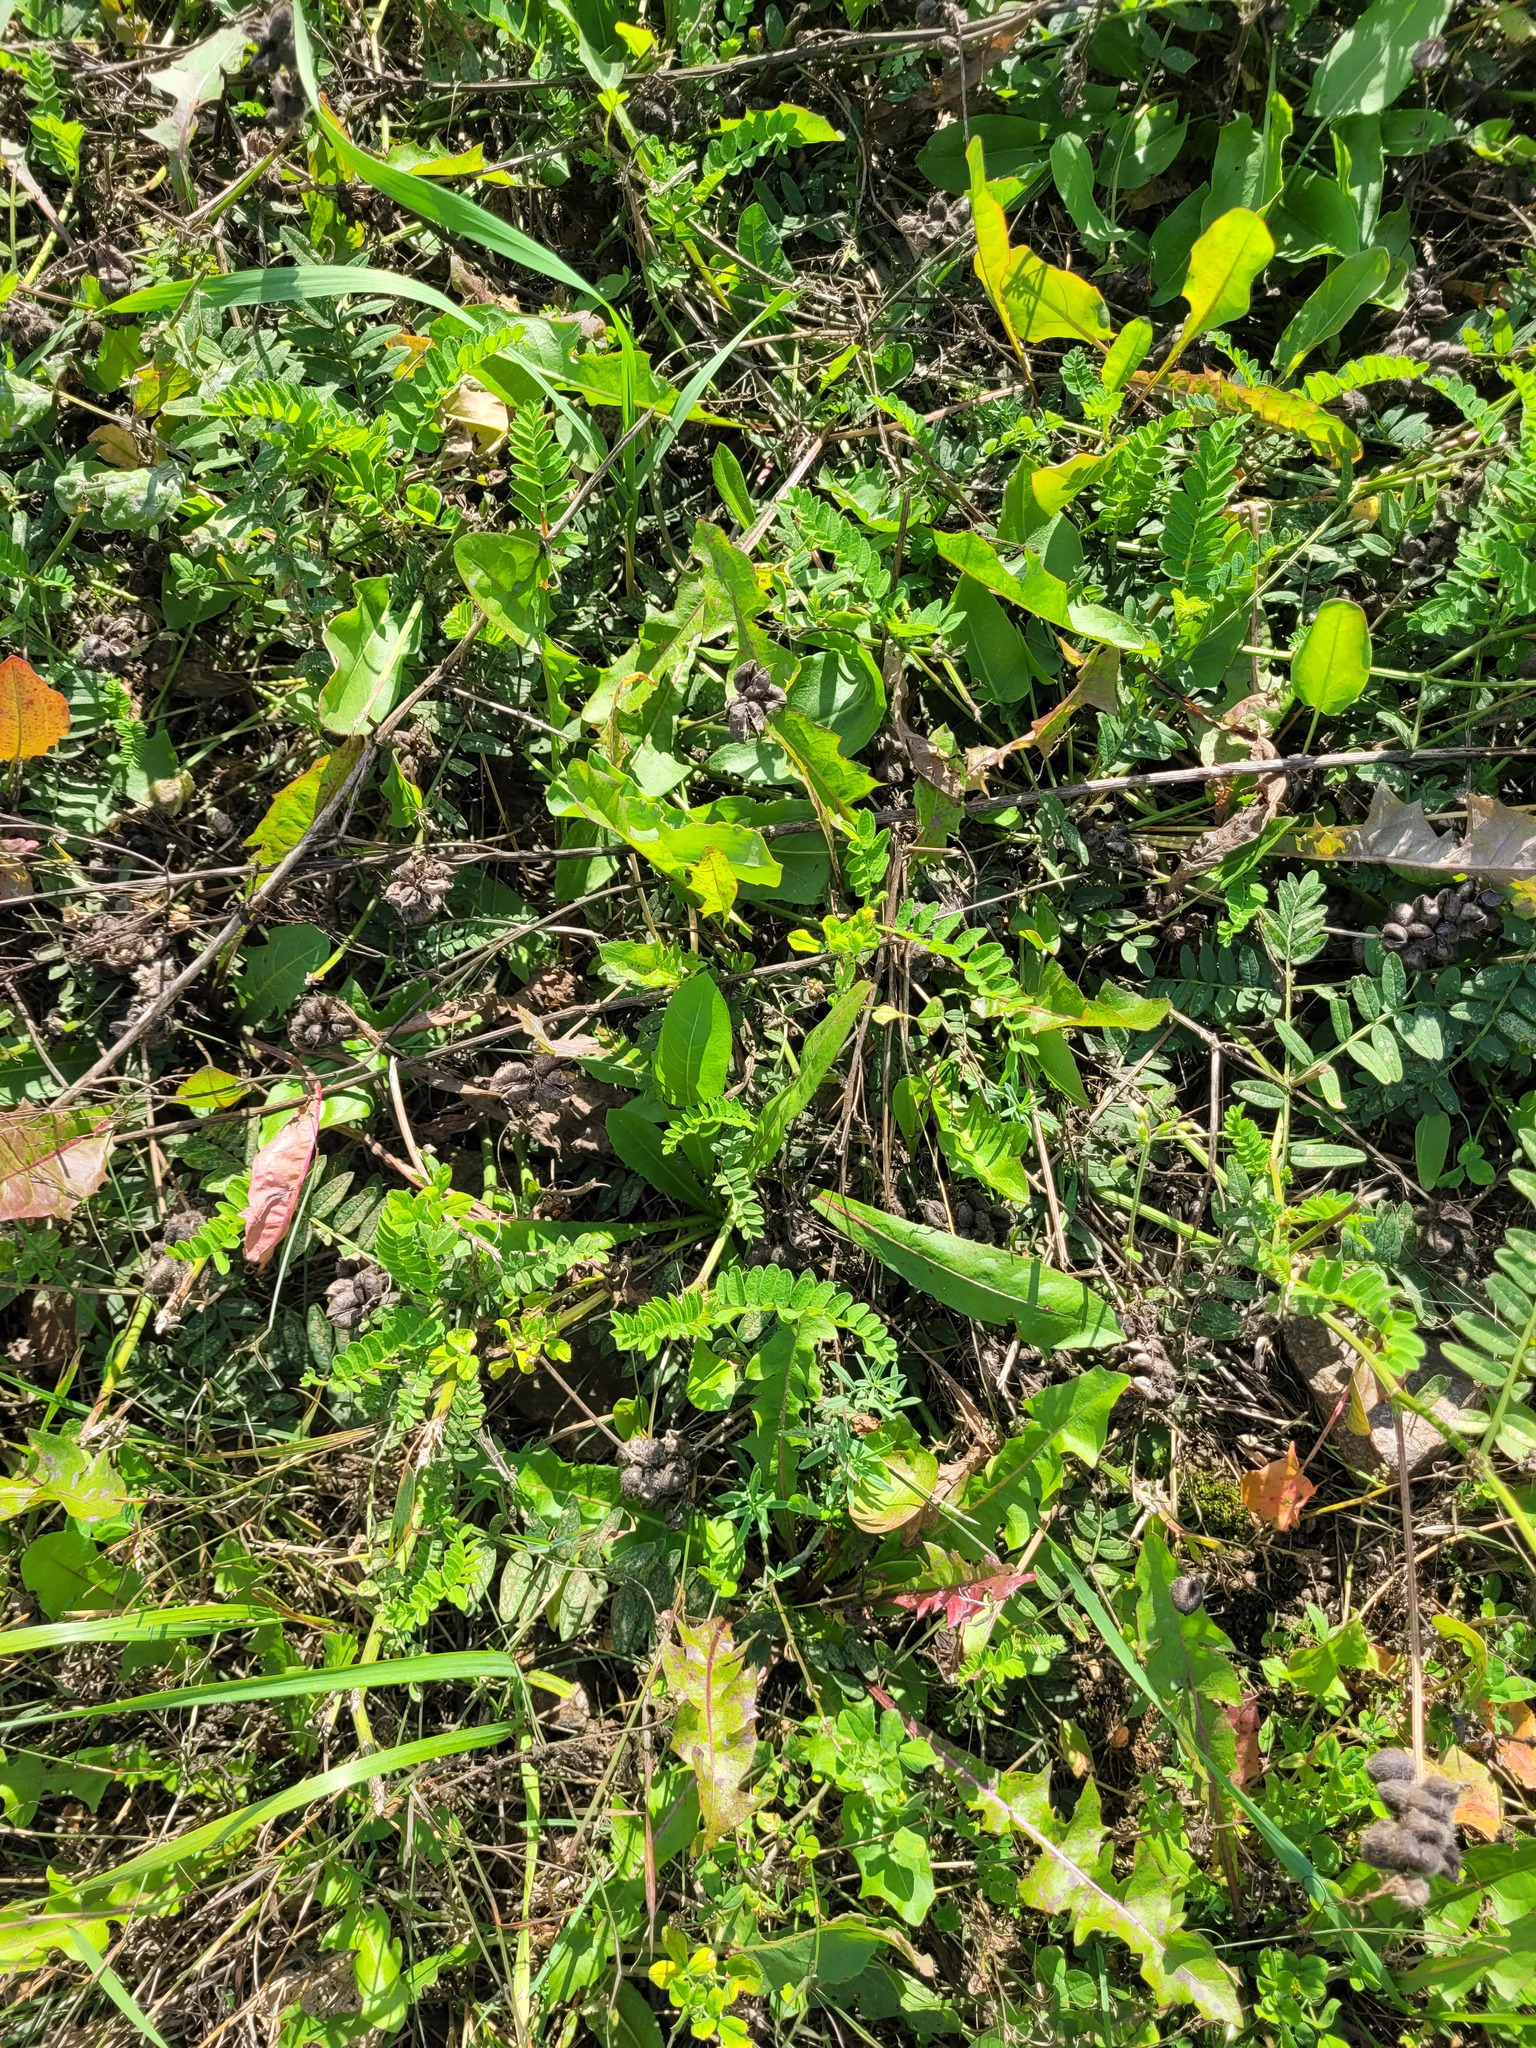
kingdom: Plantae
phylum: Tracheophyta
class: Magnoliopsida
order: Fabales
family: Fabaceae
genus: Astragalus
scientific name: Astragalus cicer
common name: Chick-pea milk-vetch
